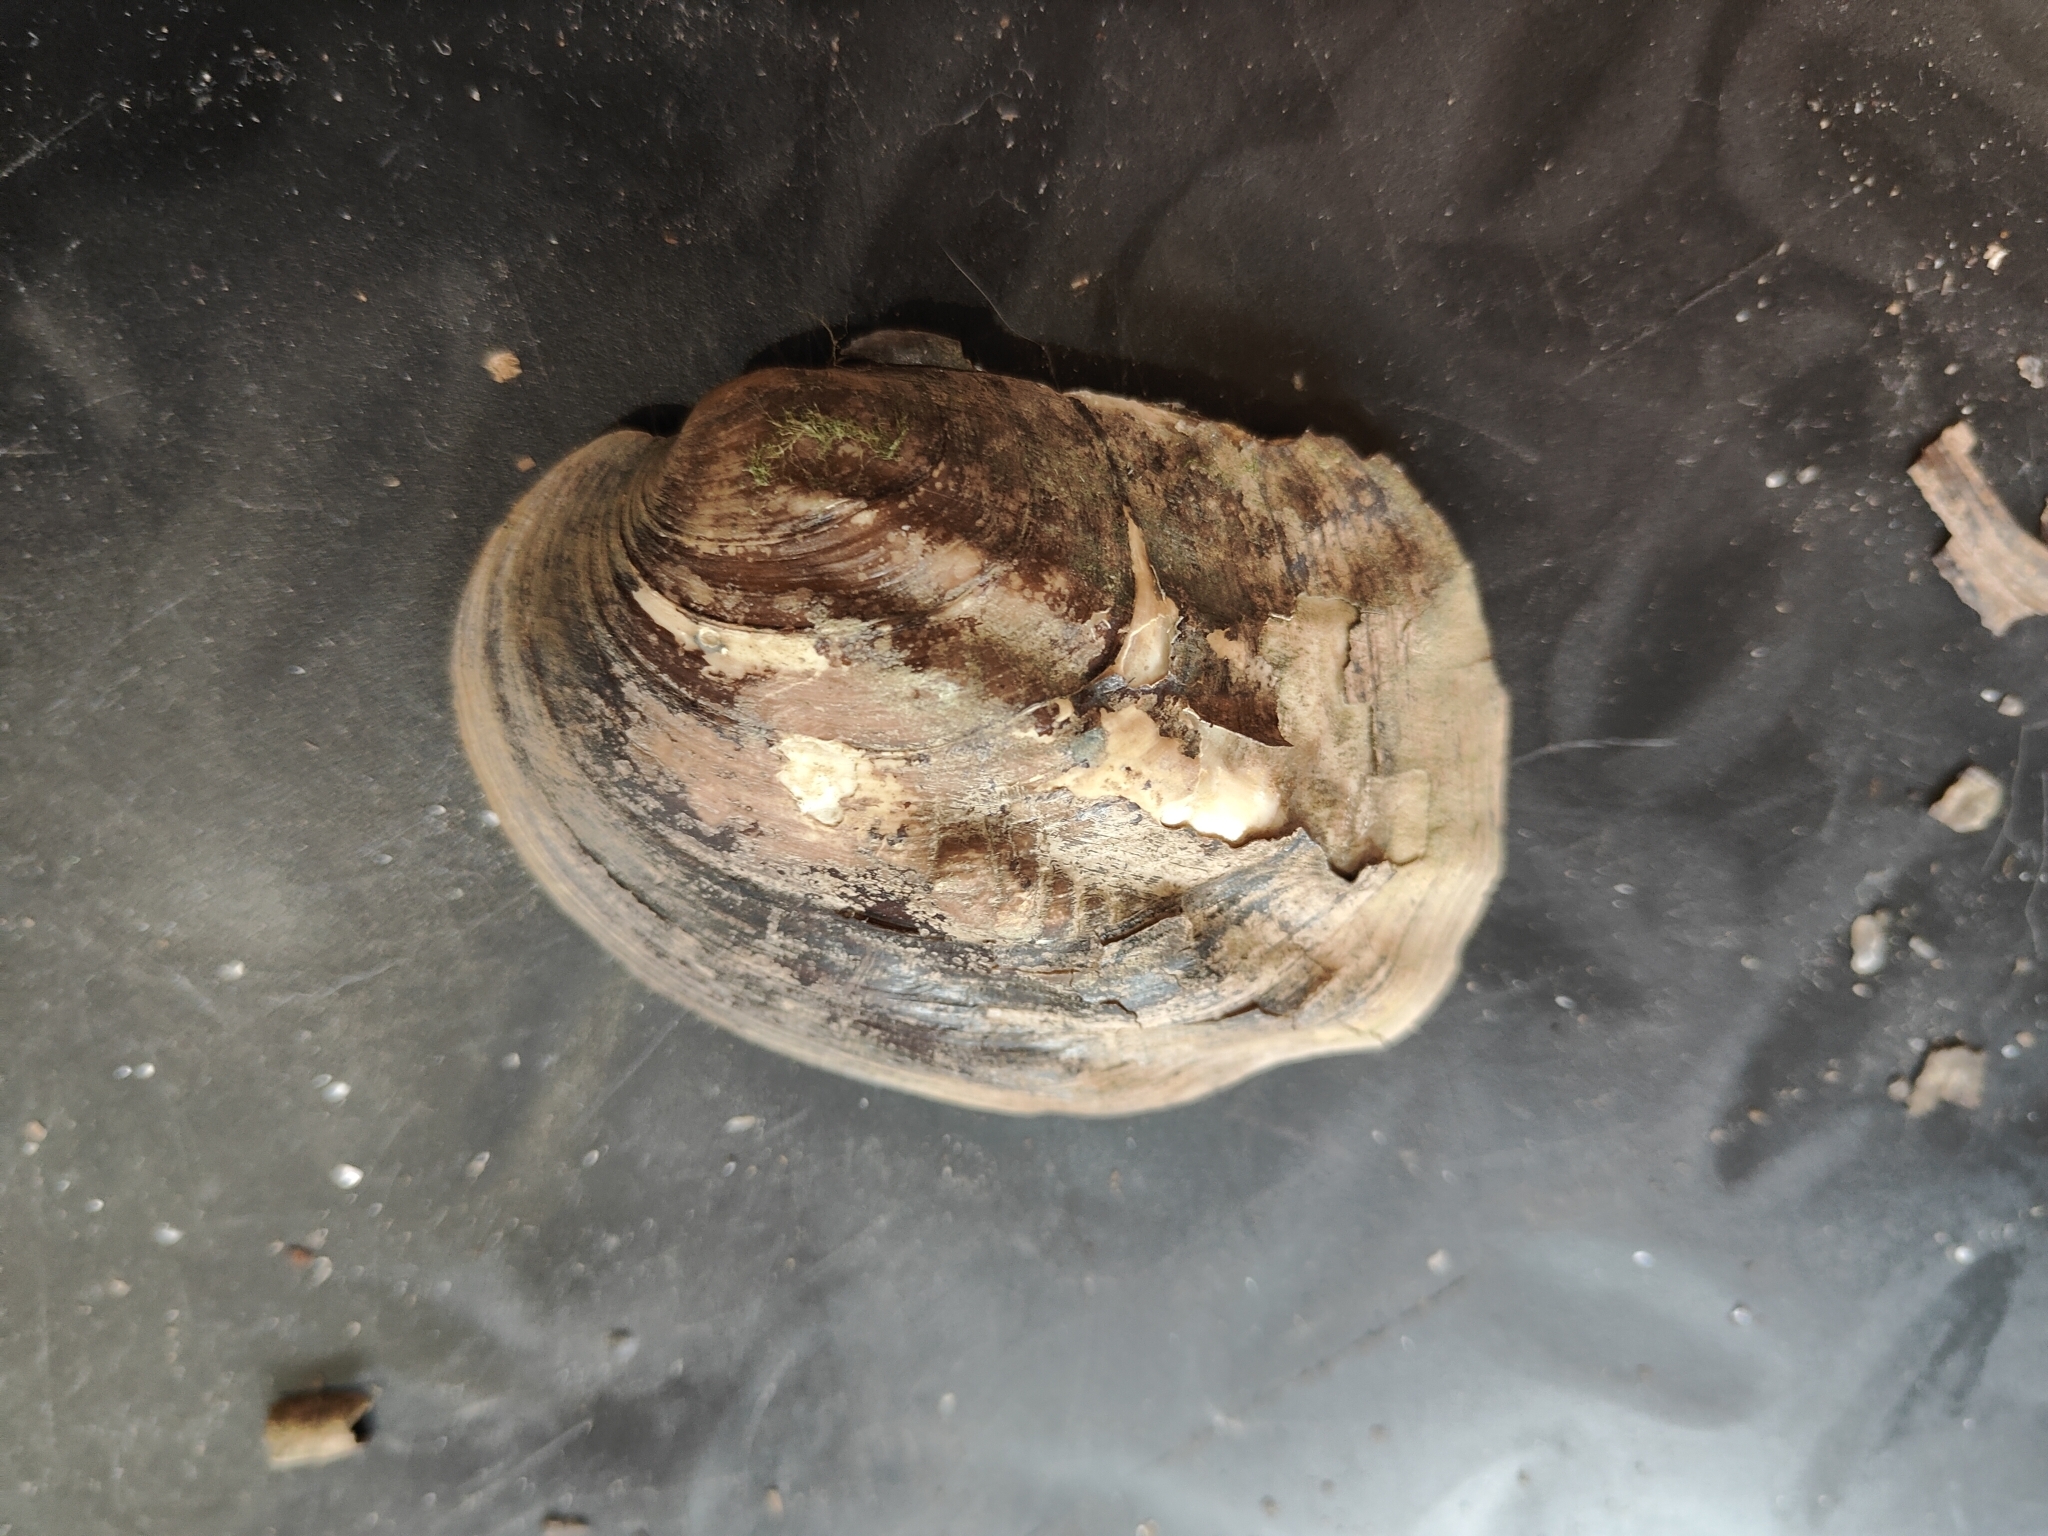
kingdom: Animalia
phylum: Mollusca
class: Bivalvia
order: Unionida
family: Unionidae
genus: Amblema
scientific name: Amblema plicata
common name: Threeridge
